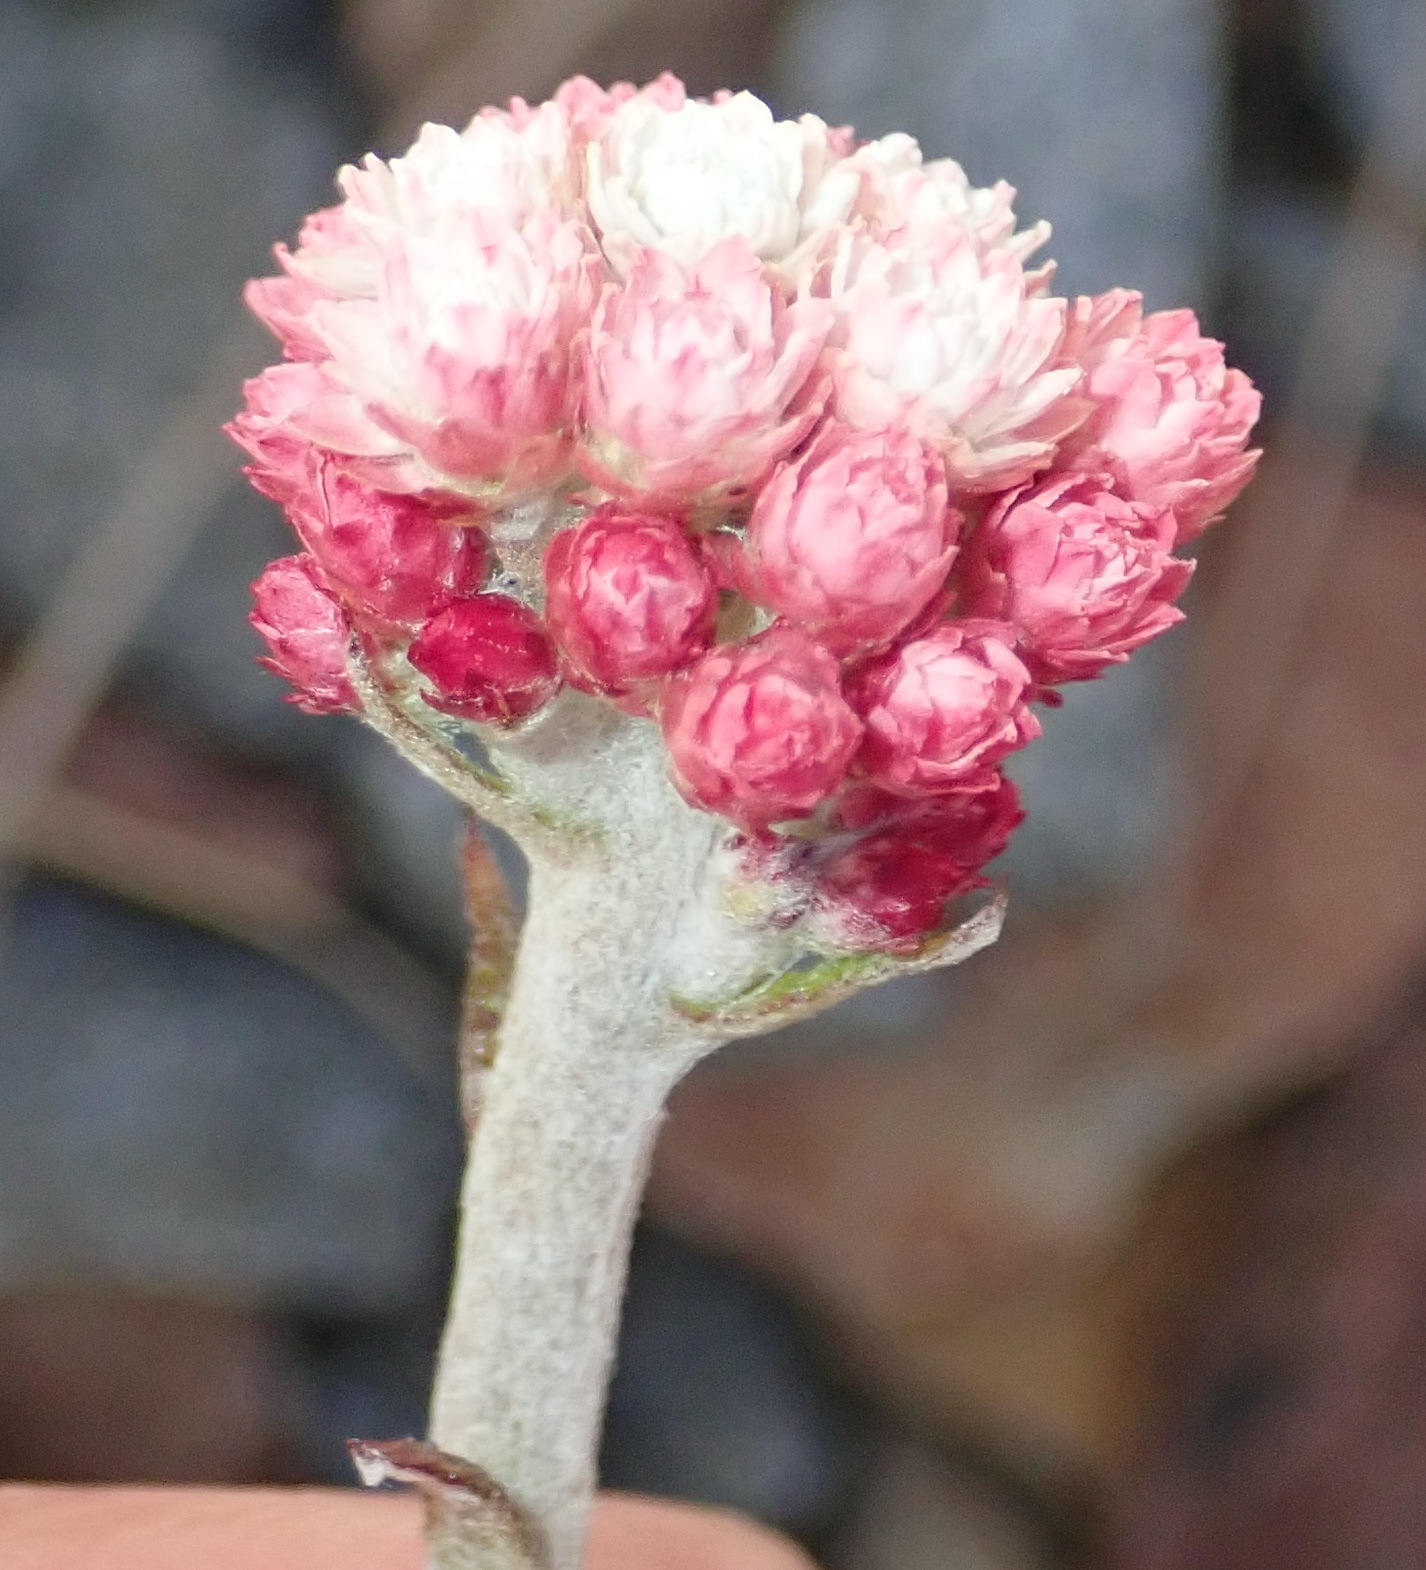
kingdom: Plantae
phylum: Tracheophyta
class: Magnoliopsida
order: Asterales
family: Asteraceae
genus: Helichrysum
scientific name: Helichrysum felinum
